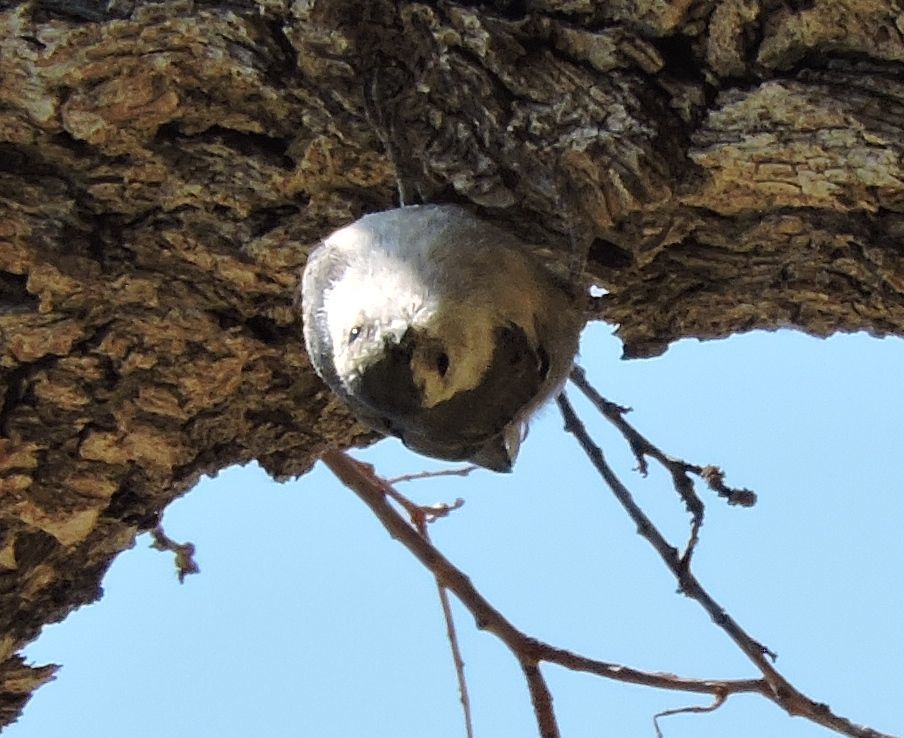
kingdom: Animalia
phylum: Chordata
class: Aves
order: Passeriformes
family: Sittidae
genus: Sitta
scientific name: Sitta carolinensis
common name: White-breasted nuthatch
